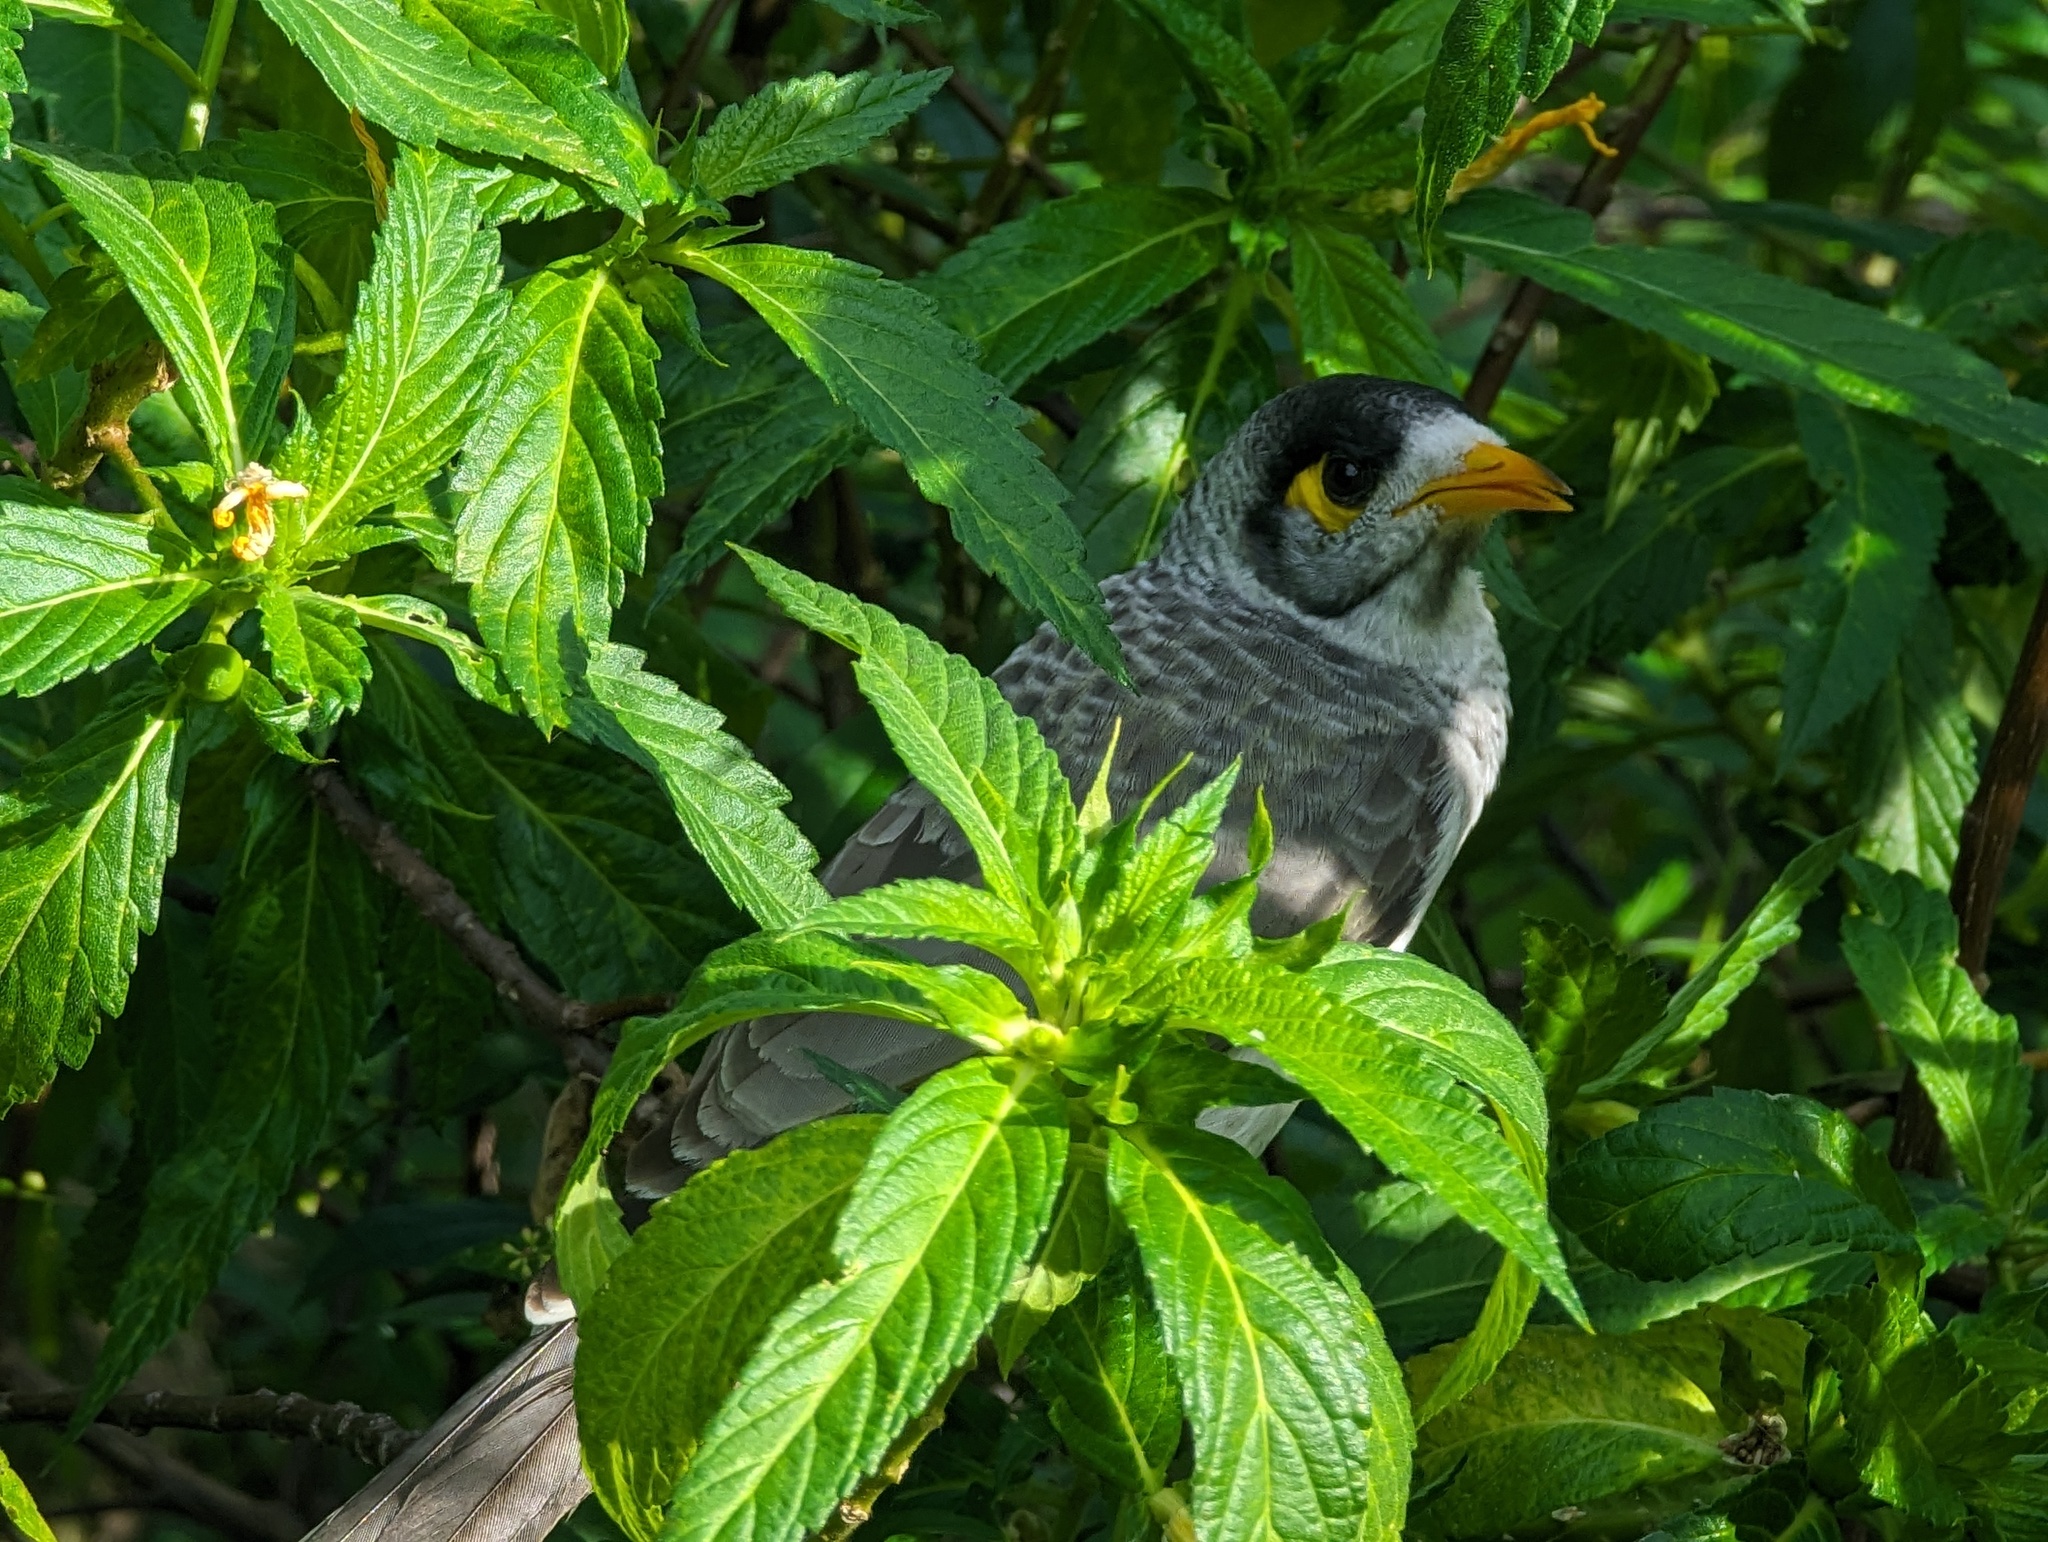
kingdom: Animalia
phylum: Chordata
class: Aves
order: Passeriformes
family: Meliphagidae
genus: Manorina
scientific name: Manorina melanocephala
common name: Noisy miner
